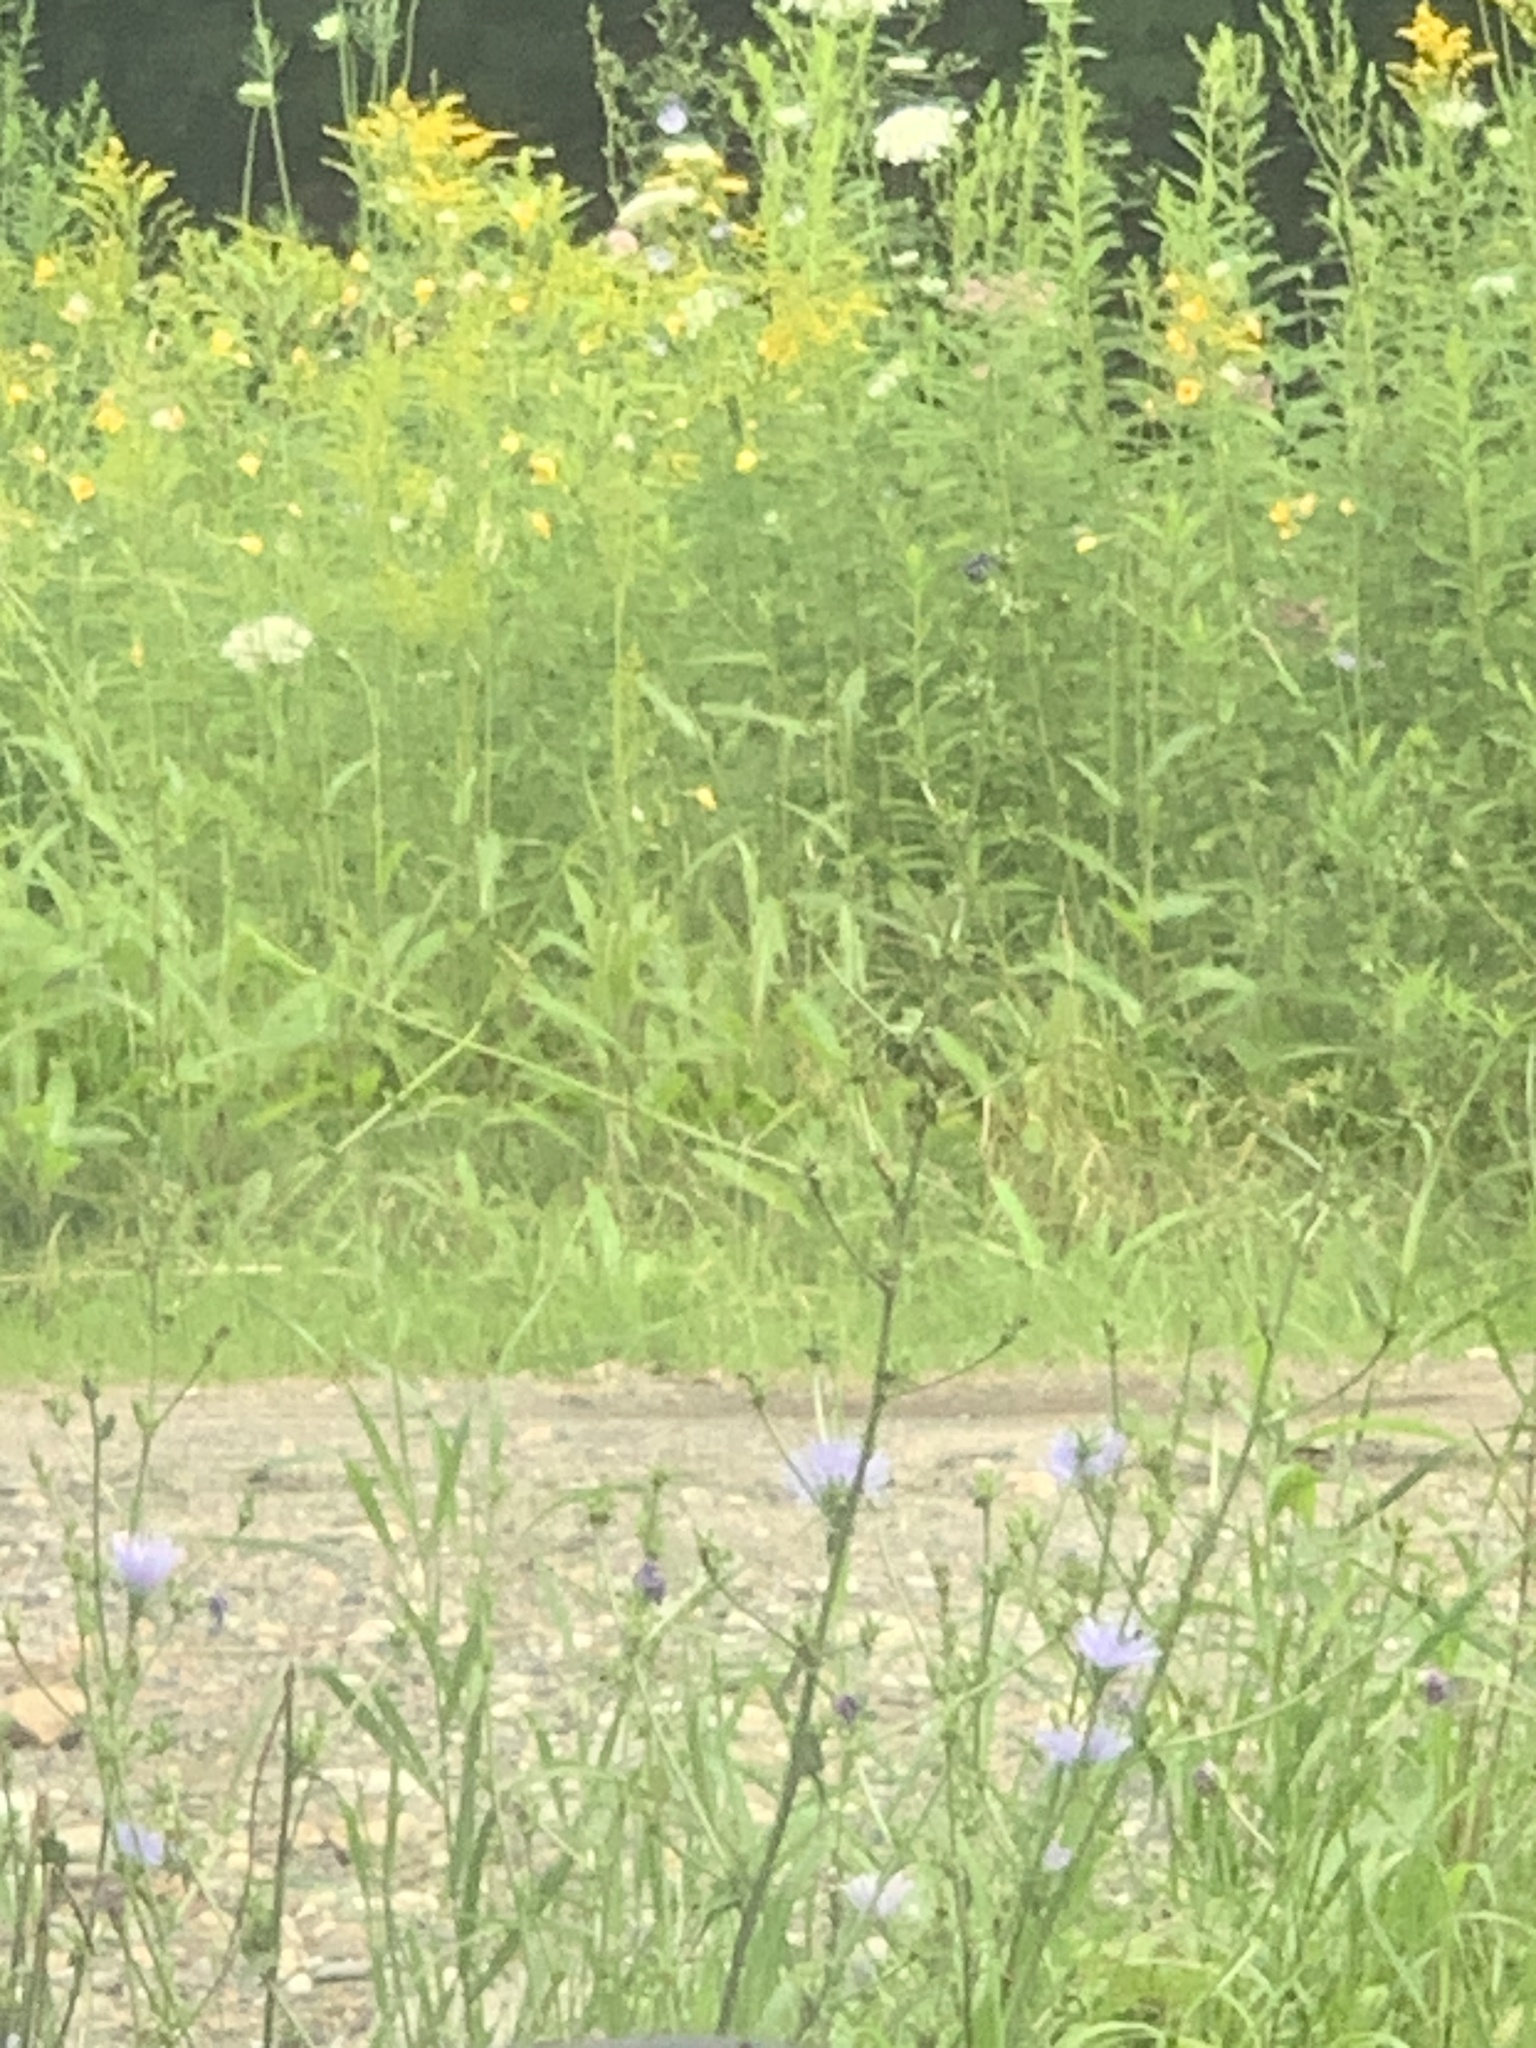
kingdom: Plantae
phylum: Tracheophyta
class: Magnoliopsida
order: Asterales
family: Asteraceae
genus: Cichorium
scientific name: Cichorium intybus
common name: Chicory
